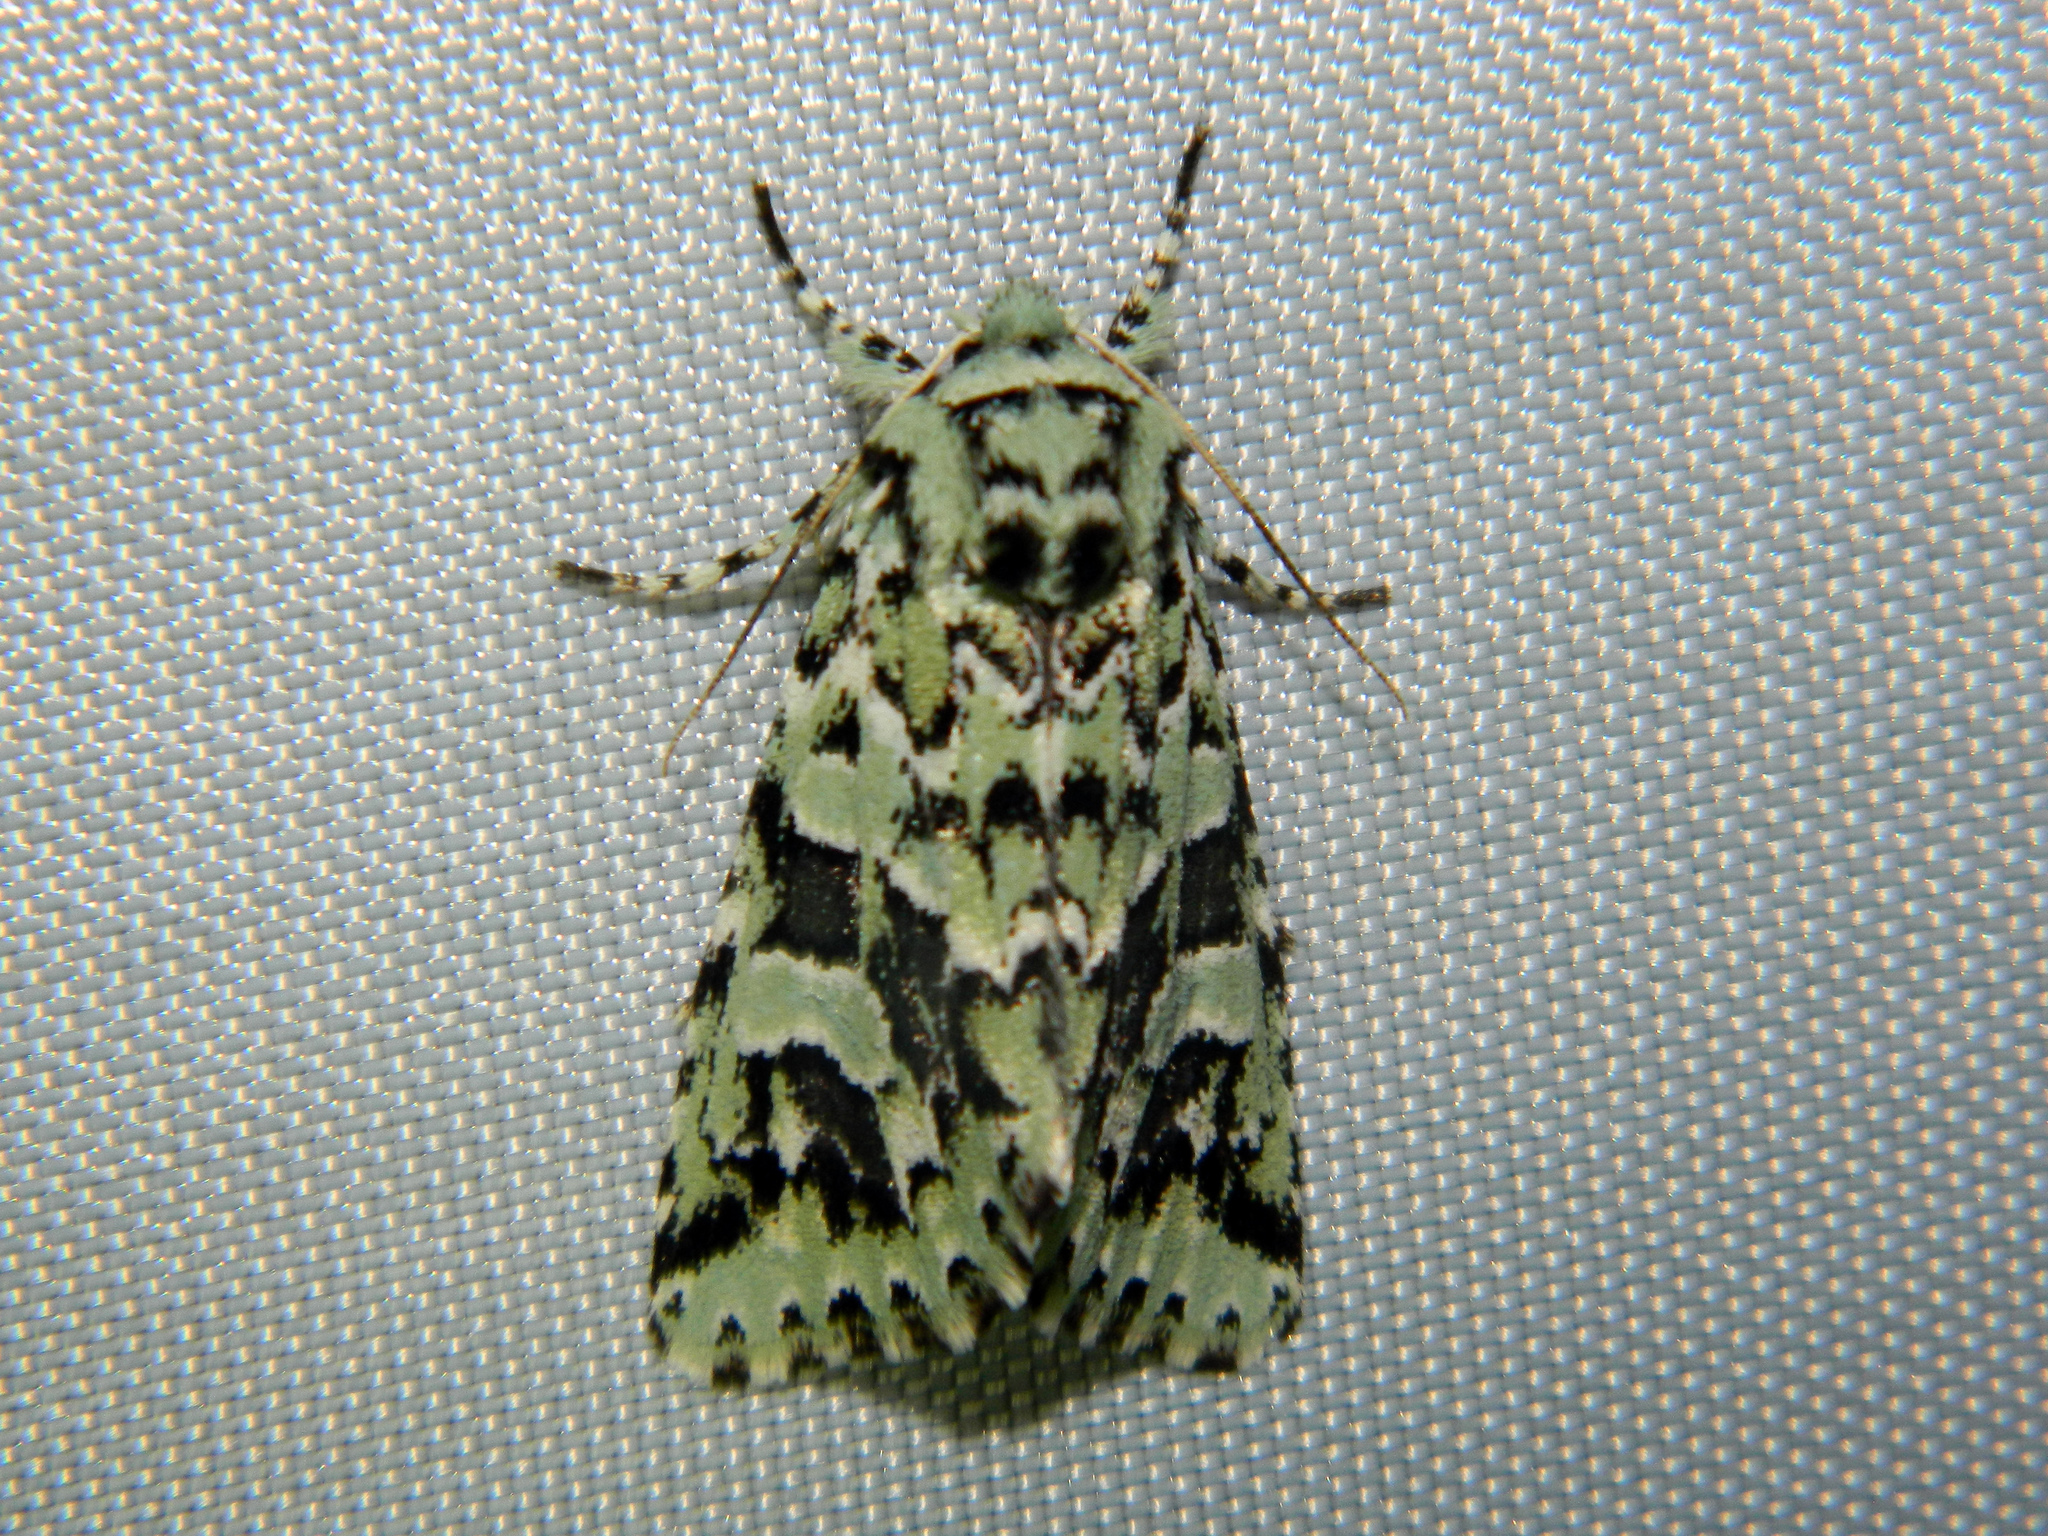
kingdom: Animalia
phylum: Arthropoda
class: Insecta
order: Lepidoptera
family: Noctuidae
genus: Feralia
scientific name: Feralia comstocki
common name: Comstock's sallow
